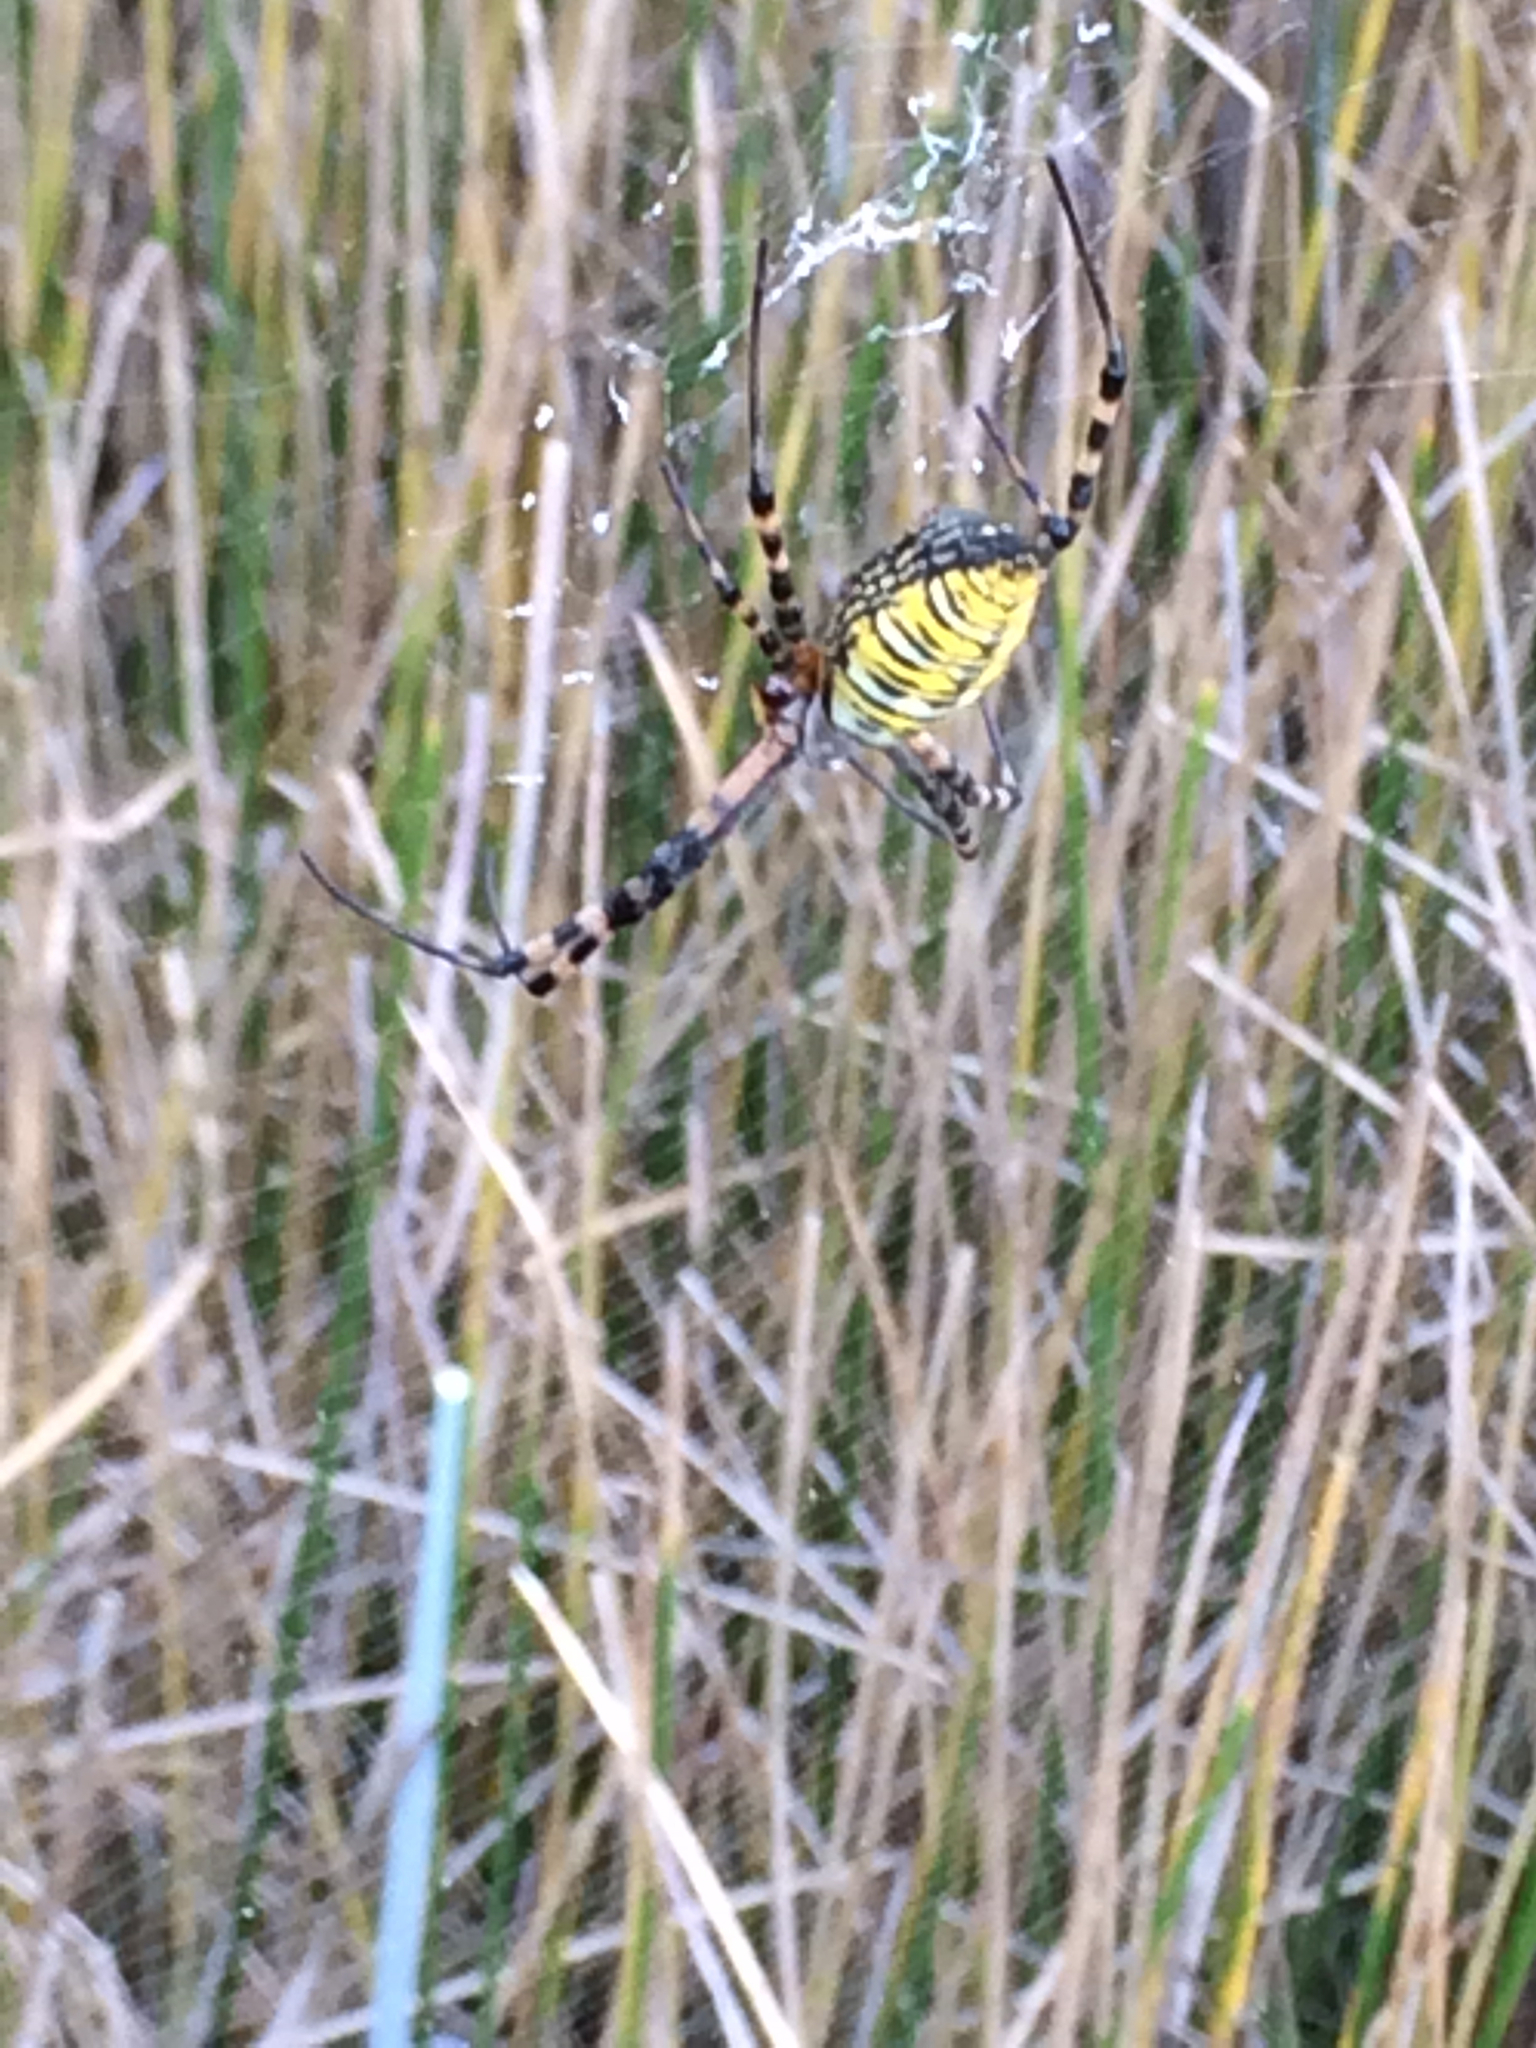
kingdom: Animalia
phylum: Arthropoda
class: Arachnida
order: Araneae
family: Araneidae
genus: Argiope
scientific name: Argiope trifasciata
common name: Banded garden spider
